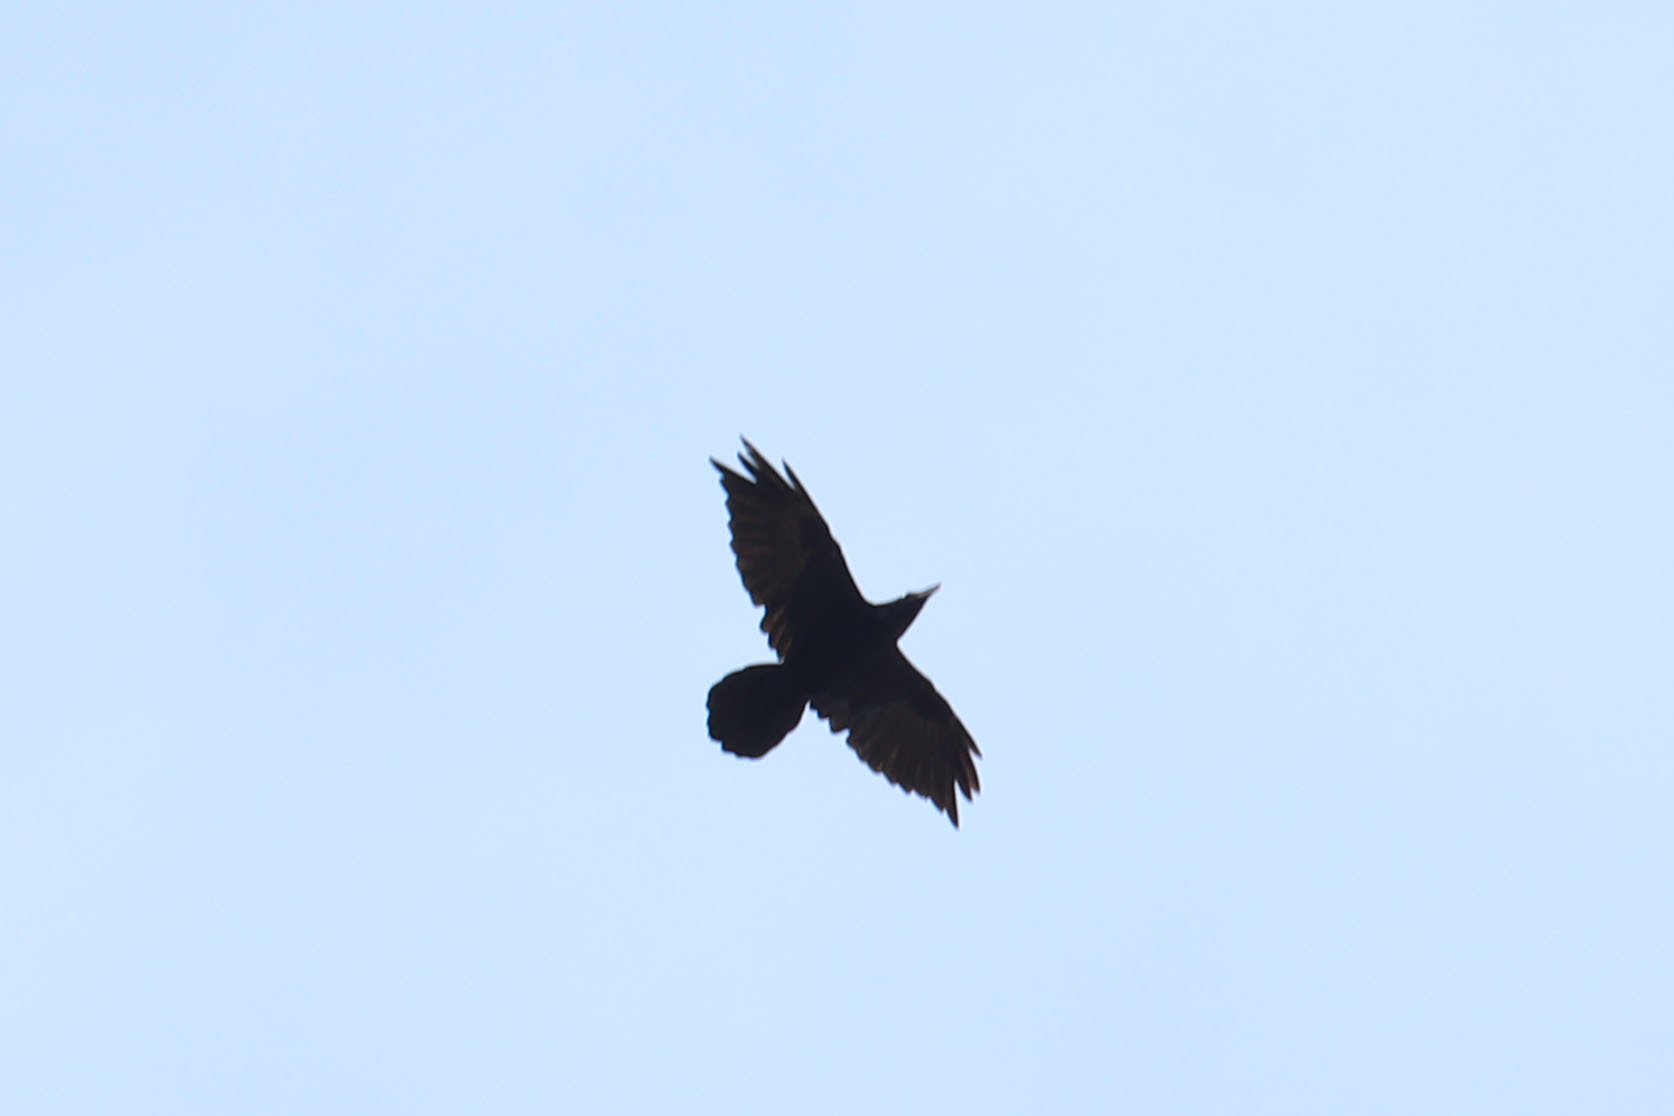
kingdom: Animalia
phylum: Chordata
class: Aves
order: Passeriformes
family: Corvidae
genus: Corvus
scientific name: Corvus corax
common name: Common raven
